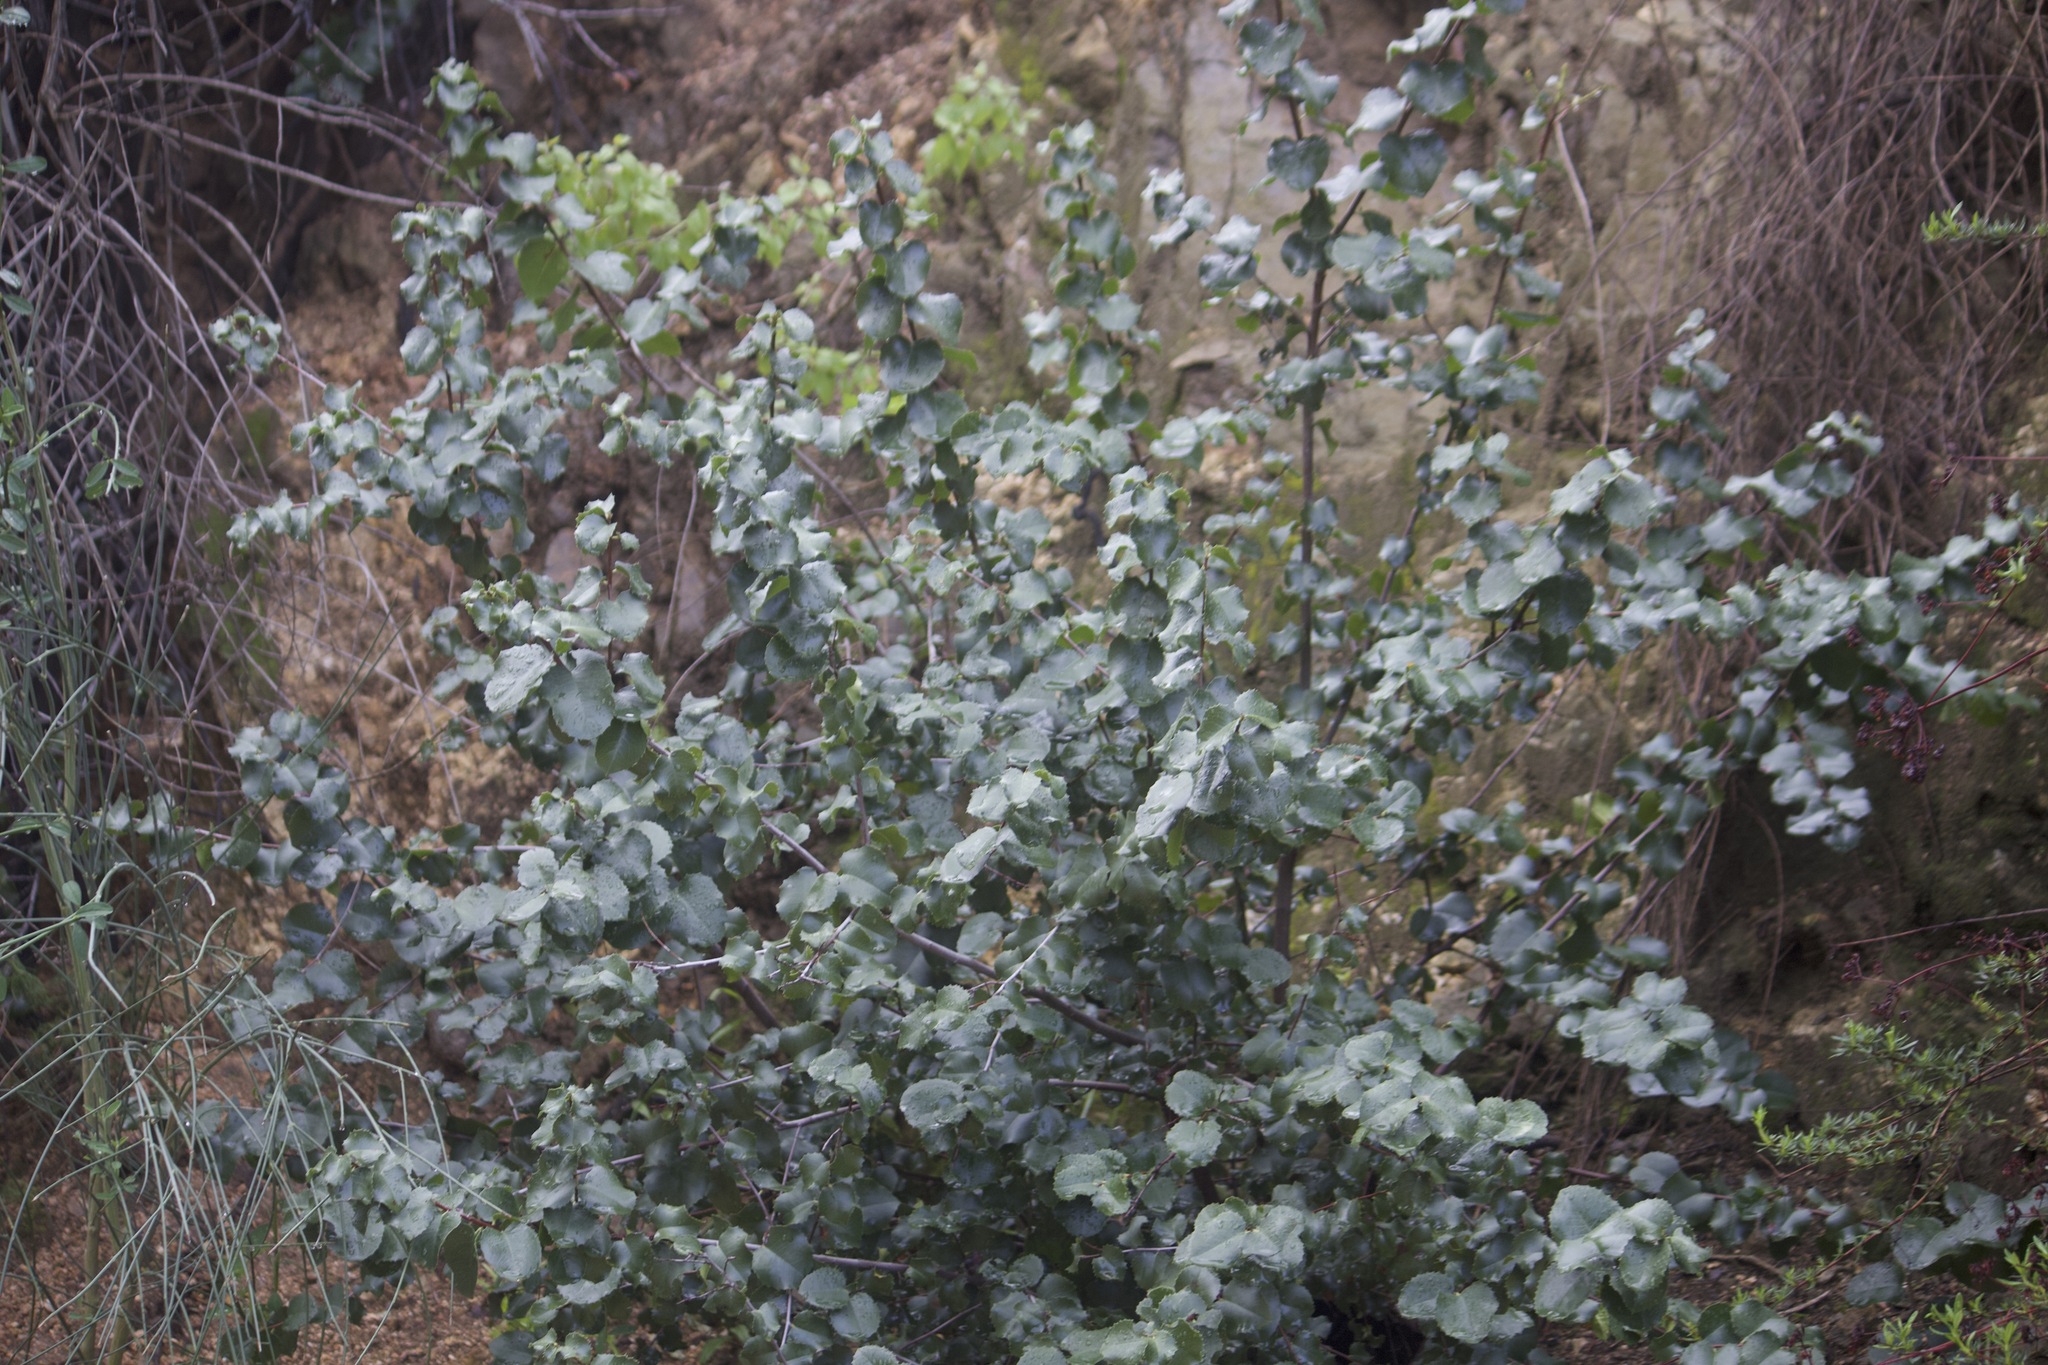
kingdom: Plantae
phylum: Tracheophyta
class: Magnoliopsida
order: Rosales
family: Rosaceae
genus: Prunus
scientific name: Prunus ilicifolia
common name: Hollyleaf cherry
